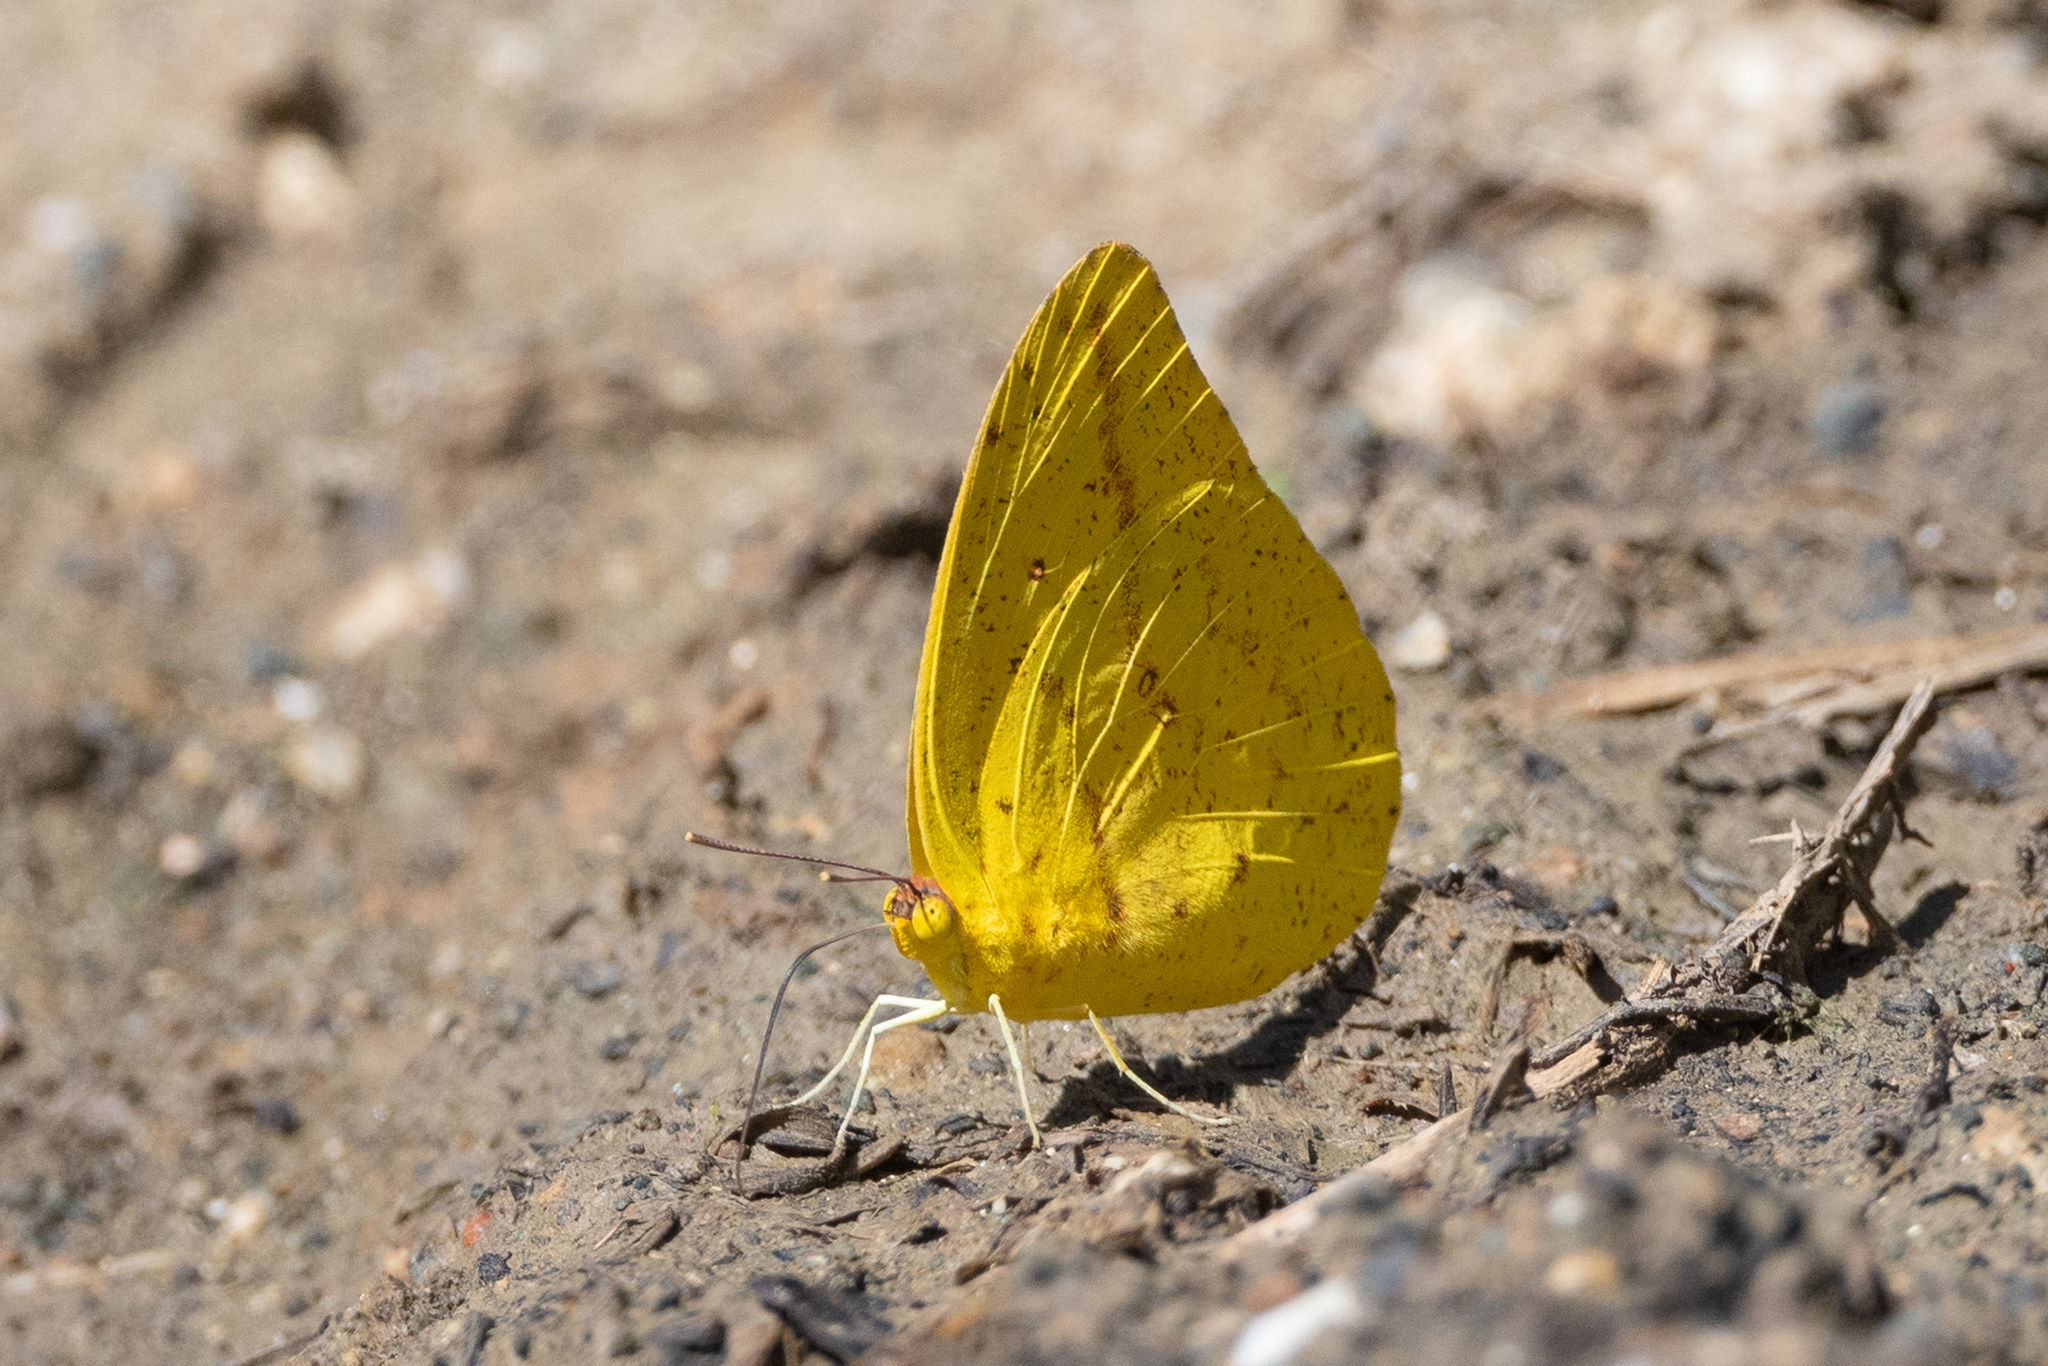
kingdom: Animalia
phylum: Arthropoda
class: Insecta
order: Lepidoptera
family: Pieridae
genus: Phoebis
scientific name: Phoebis agarithe
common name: Large orange sulphur
